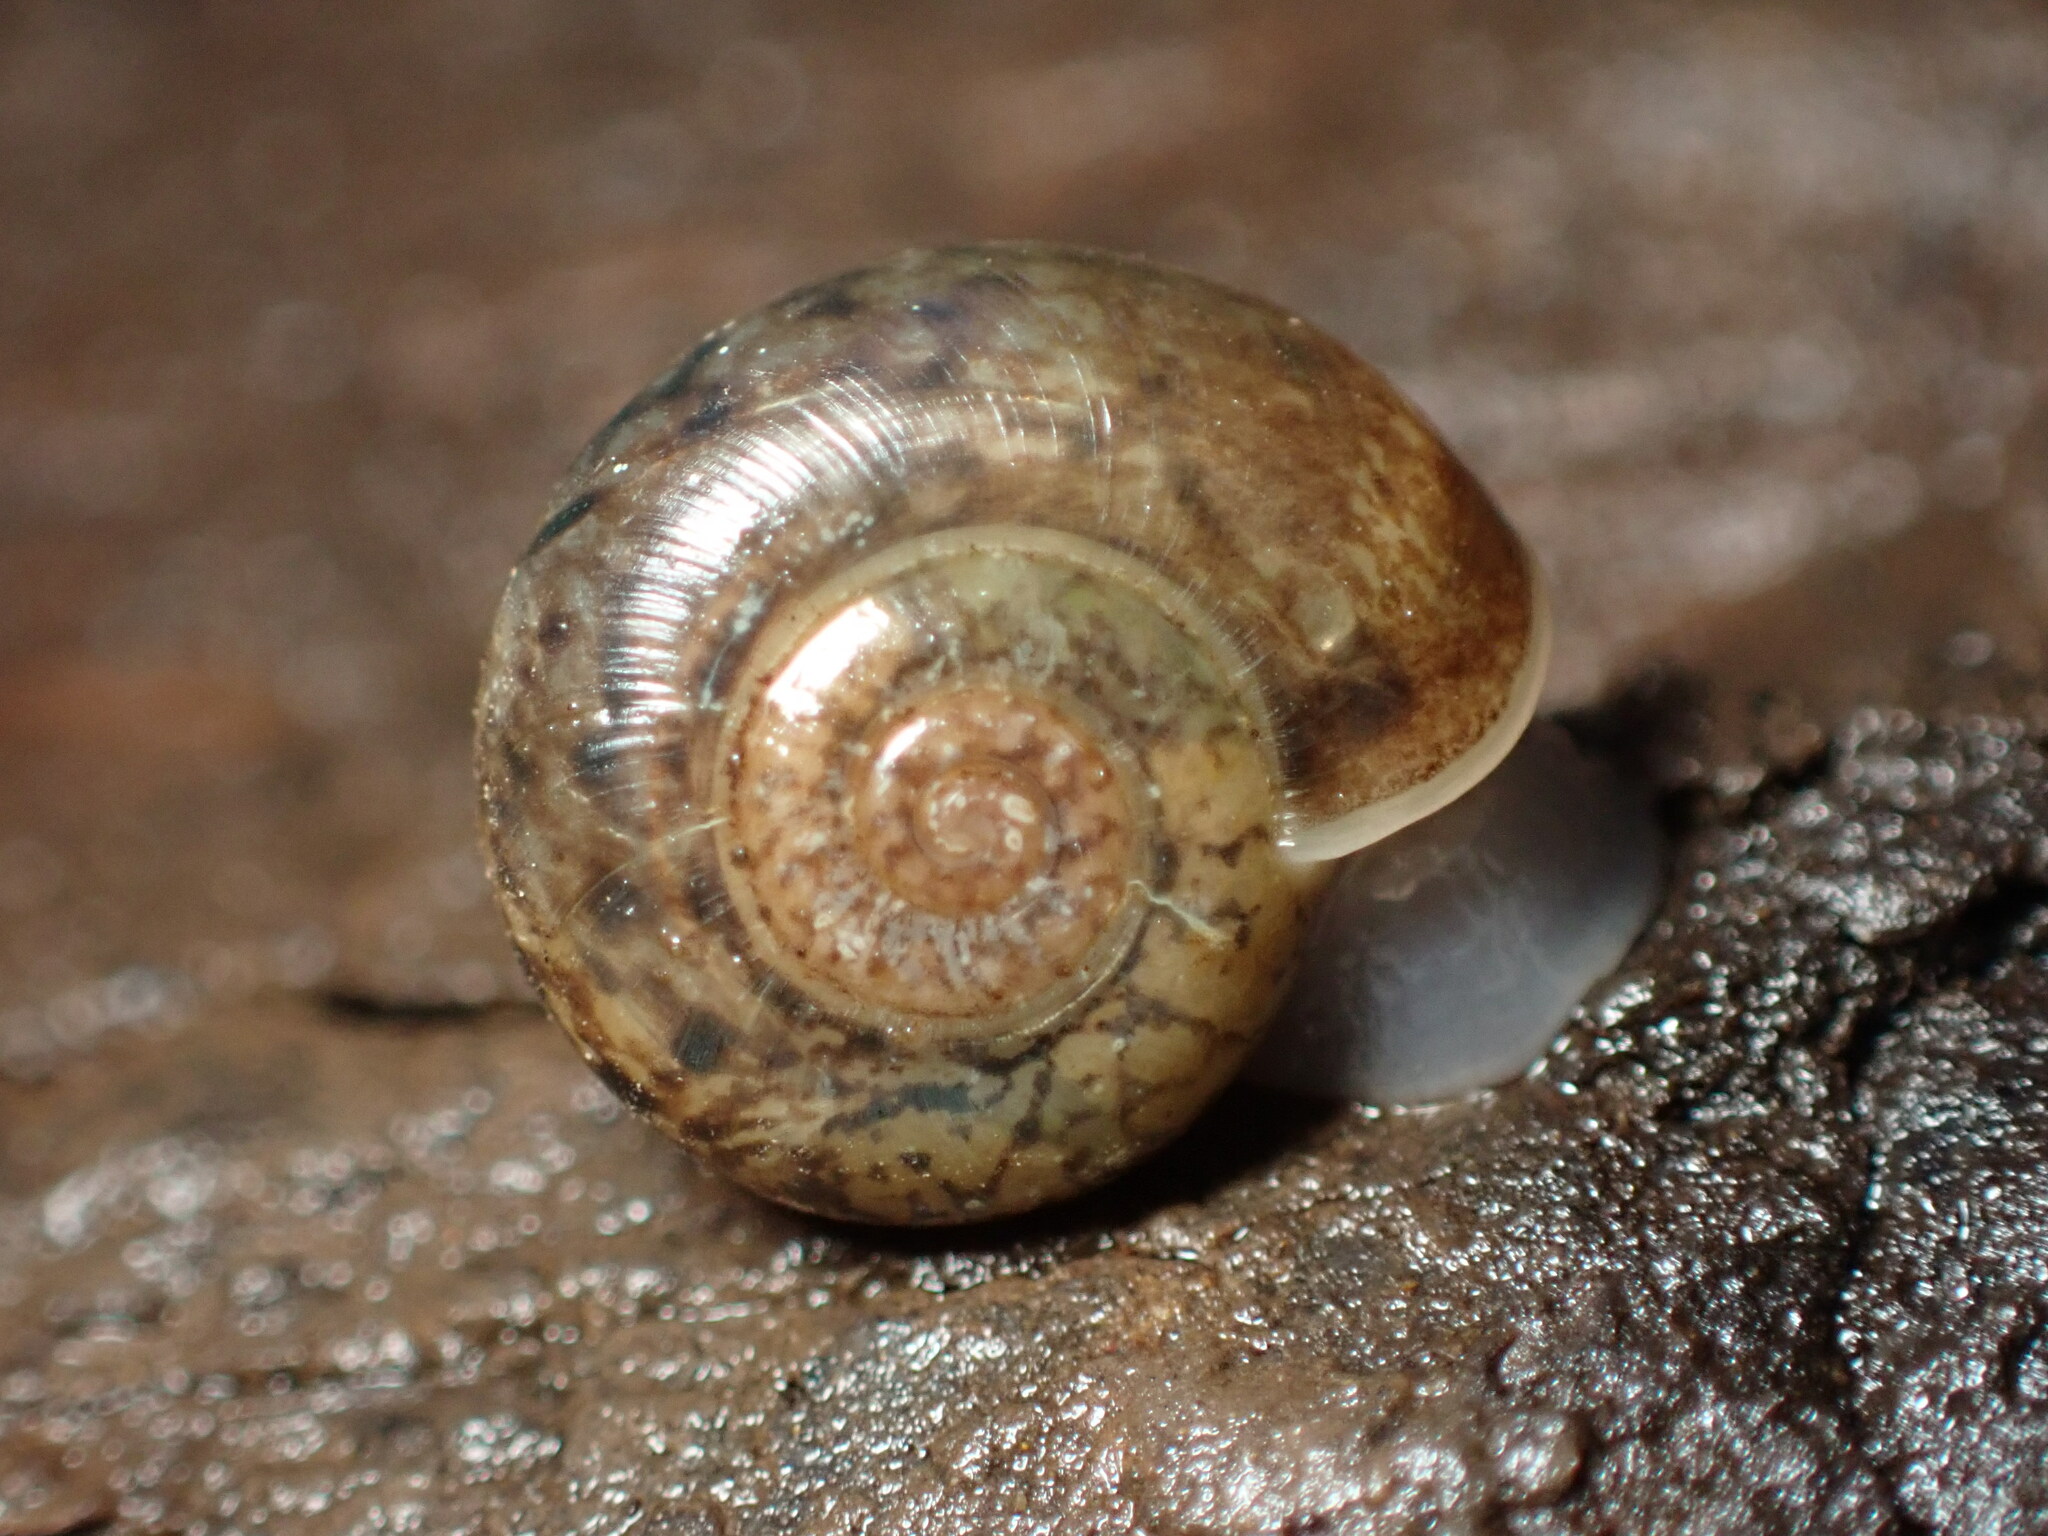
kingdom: Animalia
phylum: Mollusca
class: Gastropoda
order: Stylommatophora
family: Haplotrematidae
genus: Haplotrema
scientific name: Haplotrema minimum
